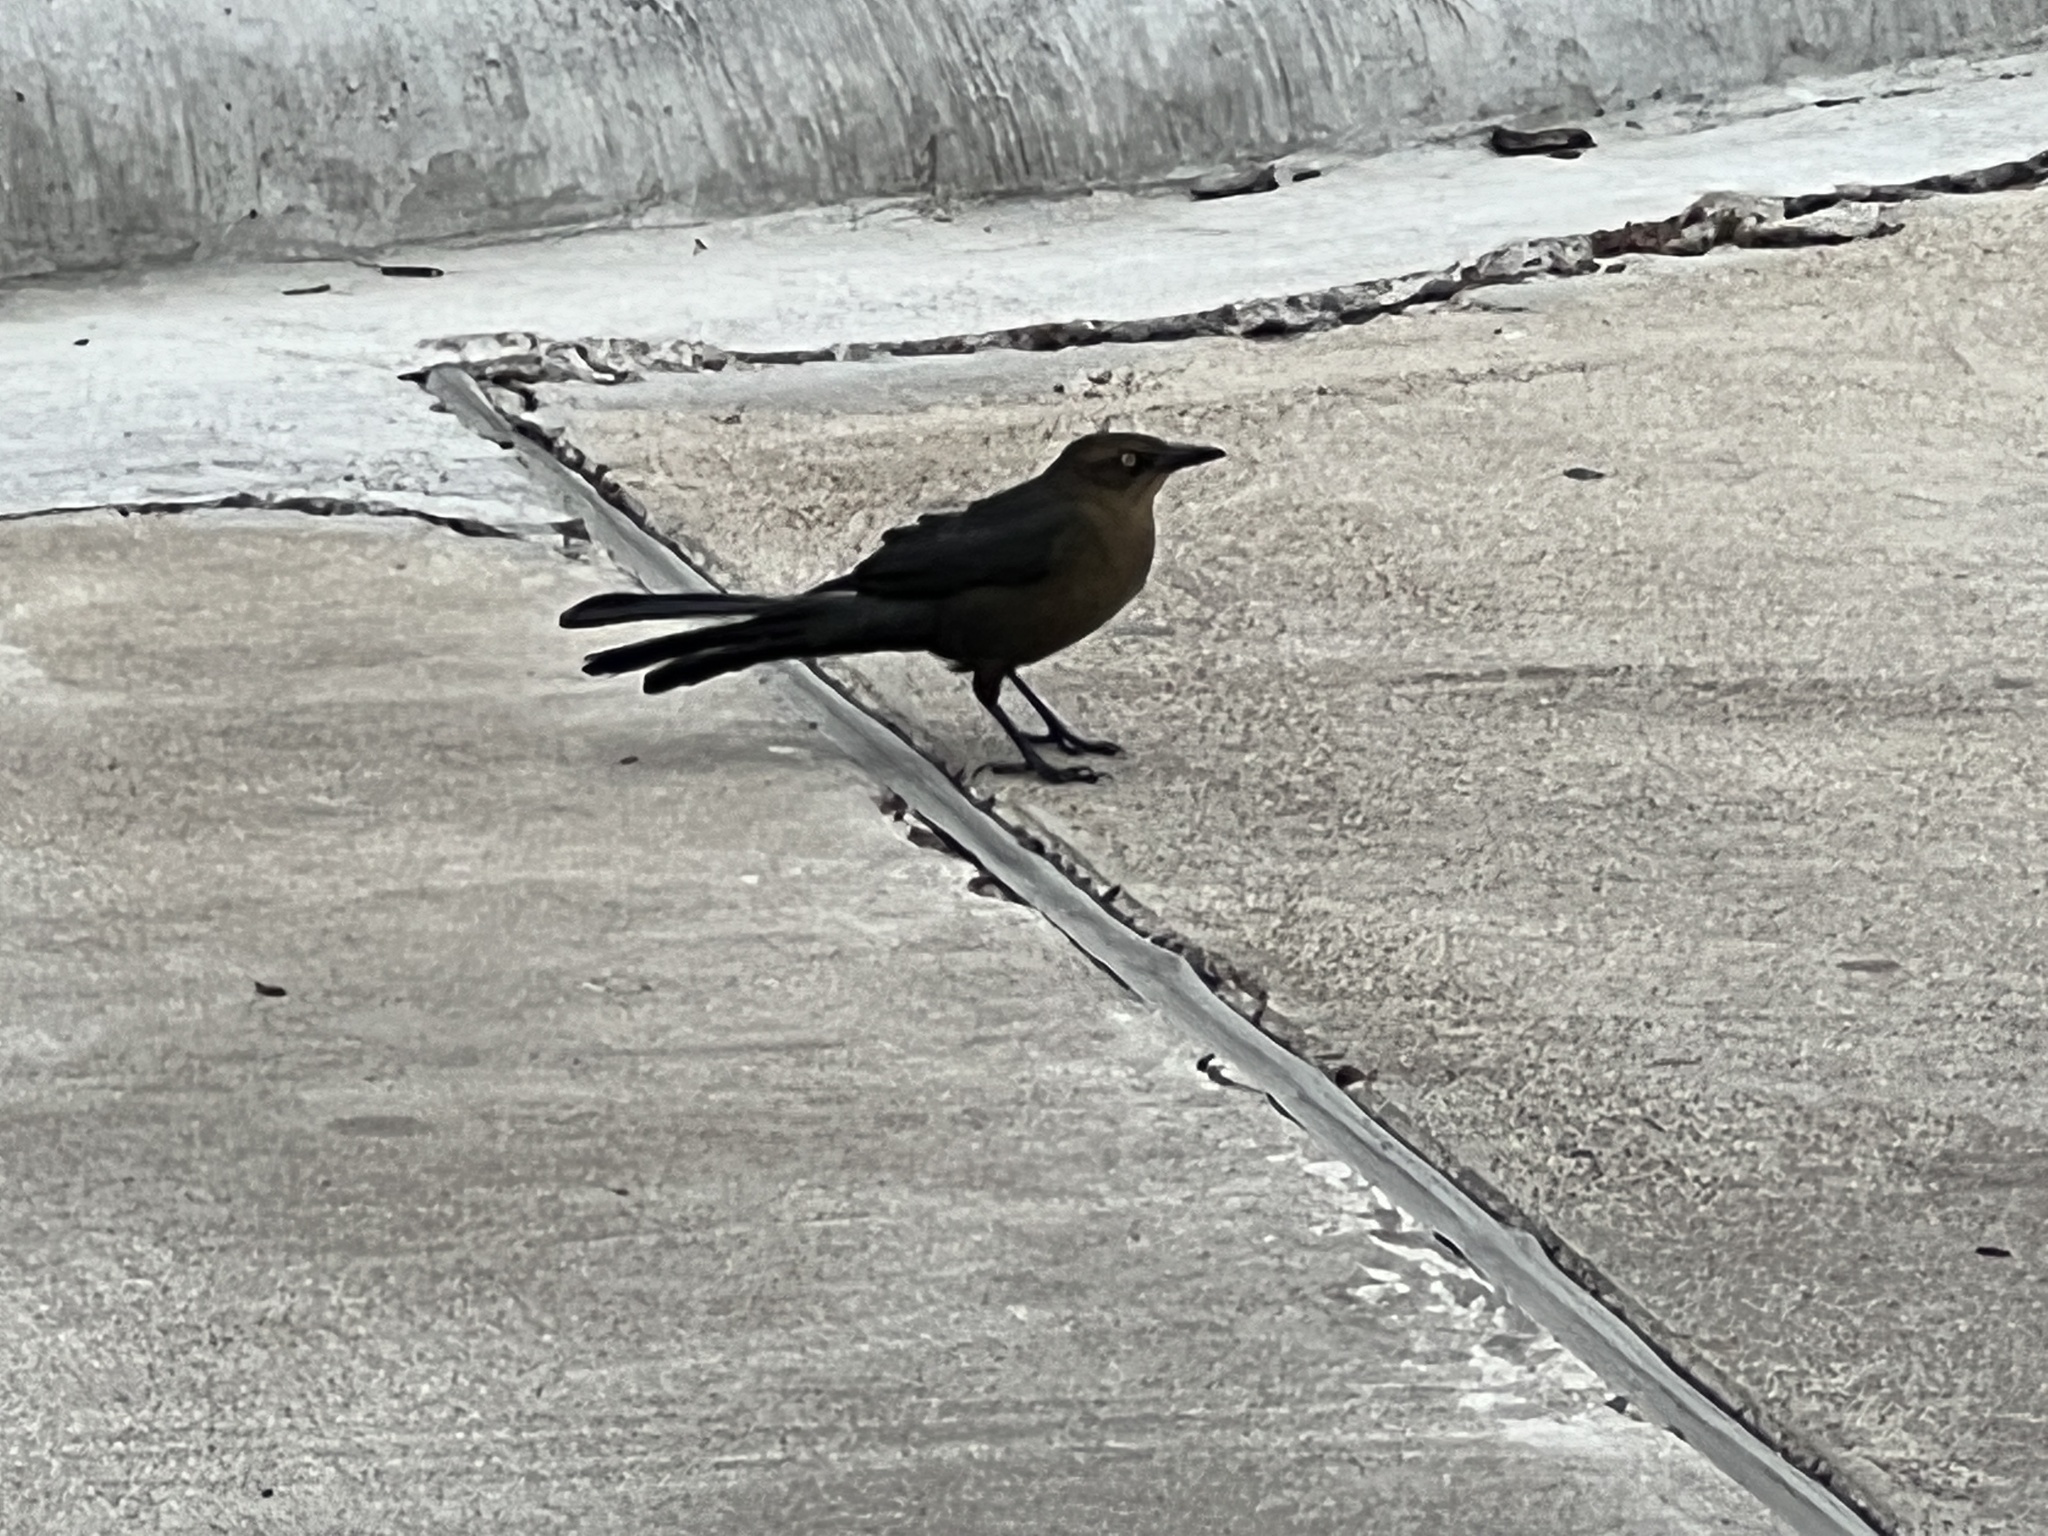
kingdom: Animalia
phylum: Chordata
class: Aves
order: Passeriformes
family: Icteridae
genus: Quiscalus
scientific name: Quiscalus mexicanus
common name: Great-tailed grackle
